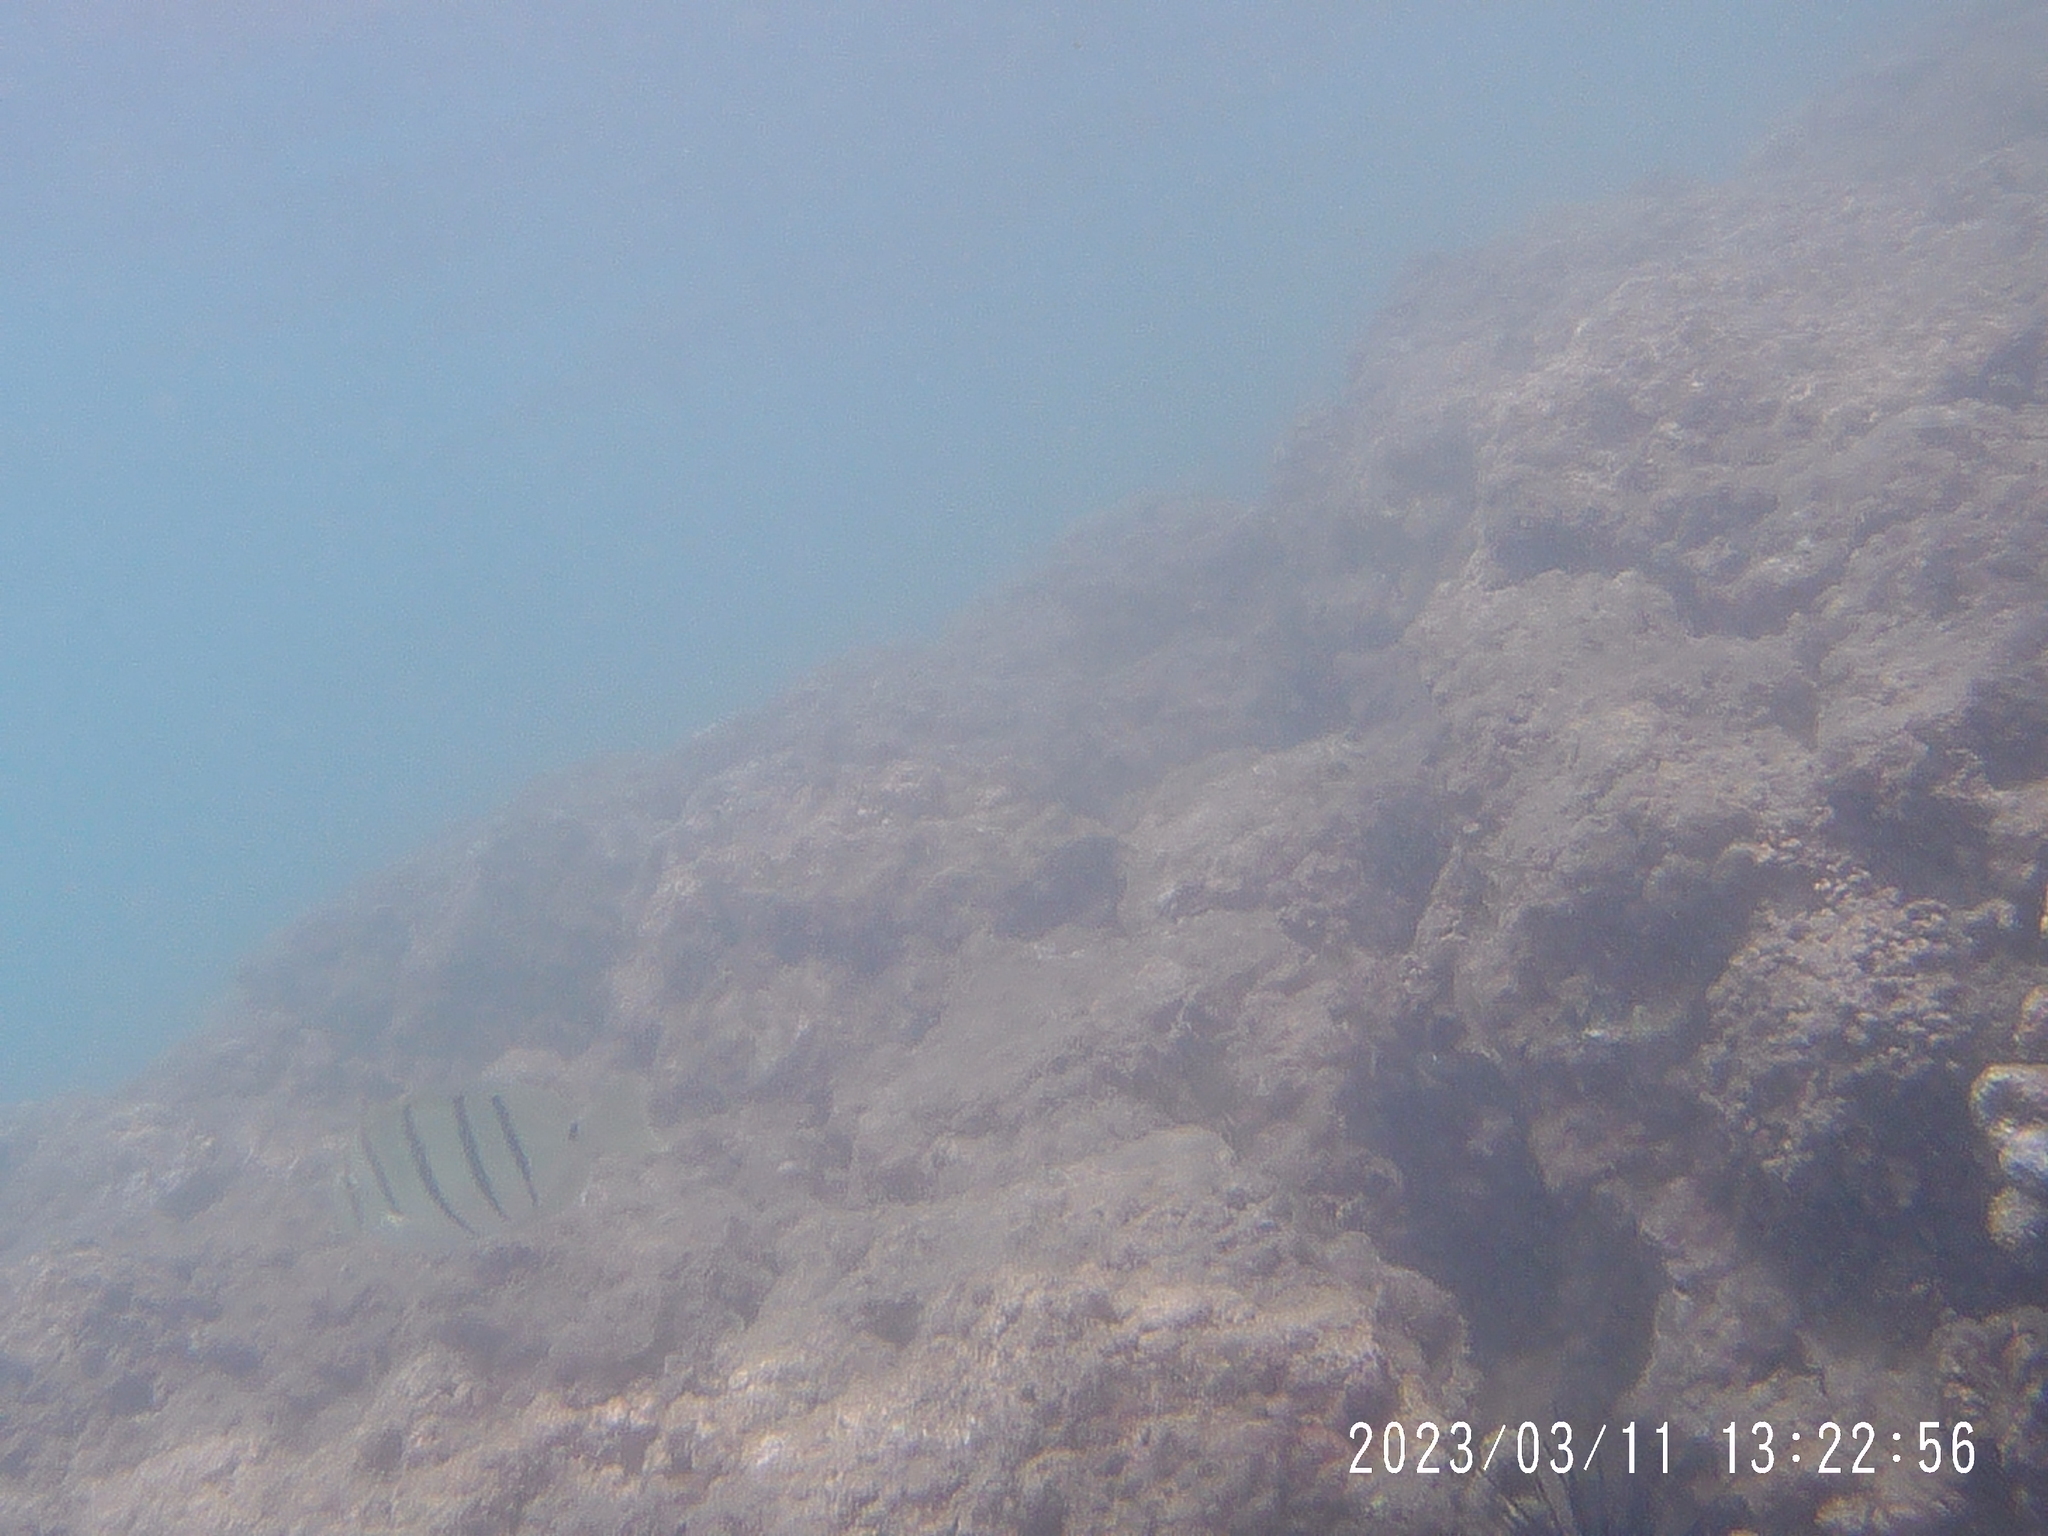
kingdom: Animalia
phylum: Chordata
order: Perciformes
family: Acanthuridae
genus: Acanthurus
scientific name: Acanthurus triostegus
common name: Convict surgeonfish
